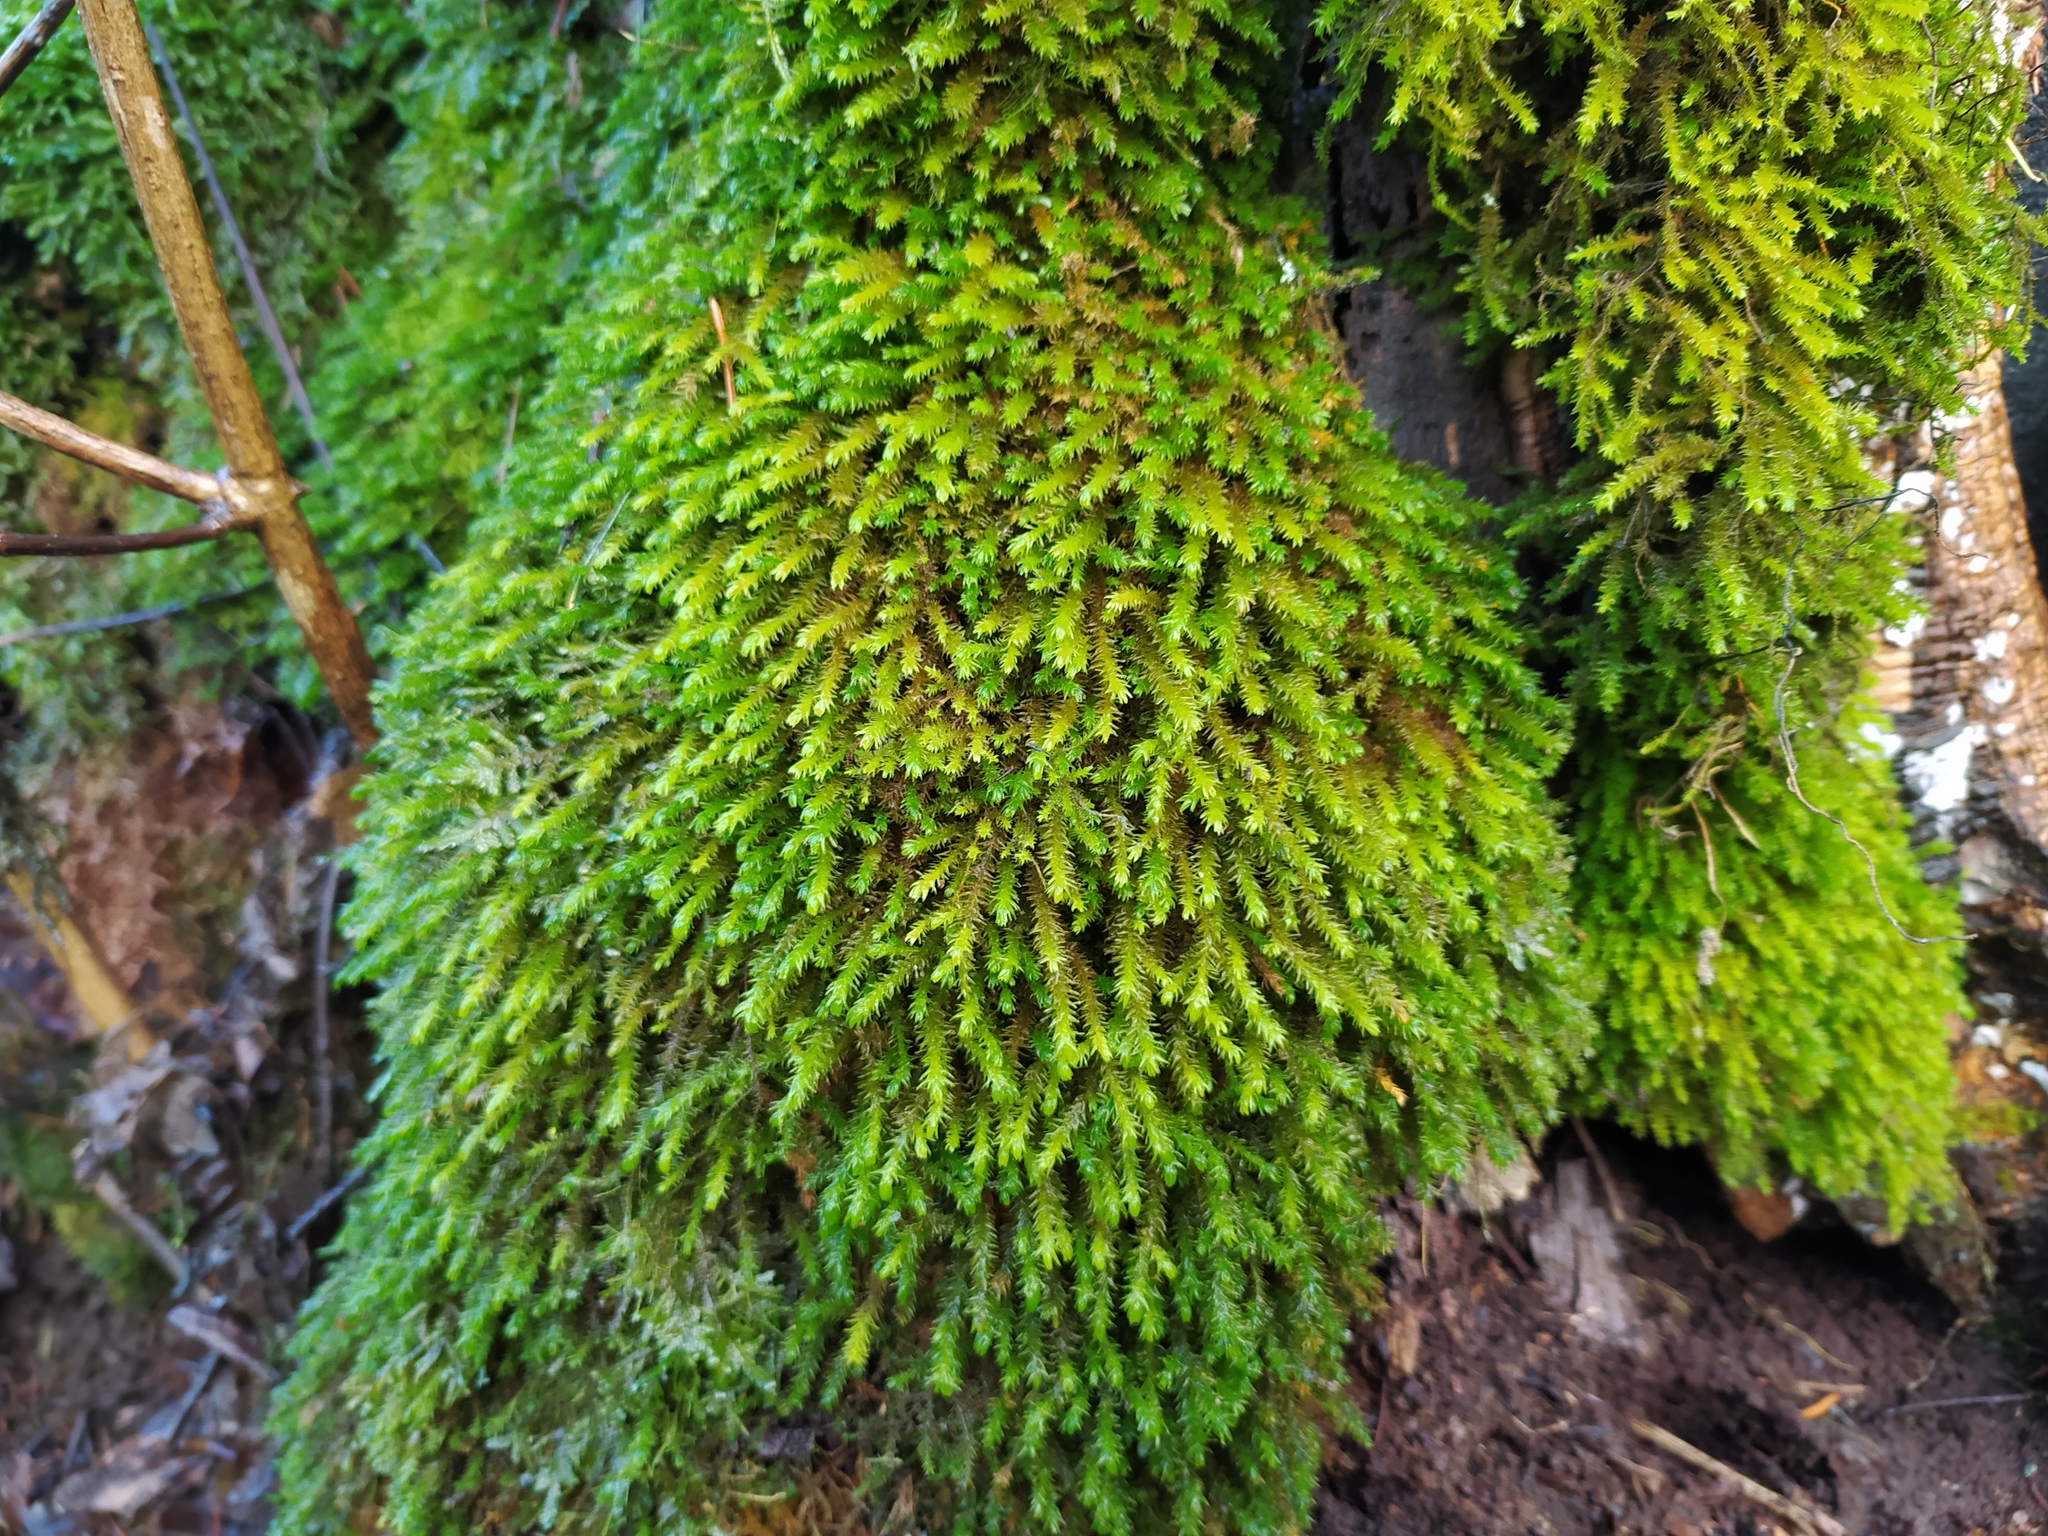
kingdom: Plantae
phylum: Bryophyta
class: Bryopsida
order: Hypnales
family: Anomodontaceae
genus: Anomodon
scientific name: Anomodon viticulosus
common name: Tall anomodon
